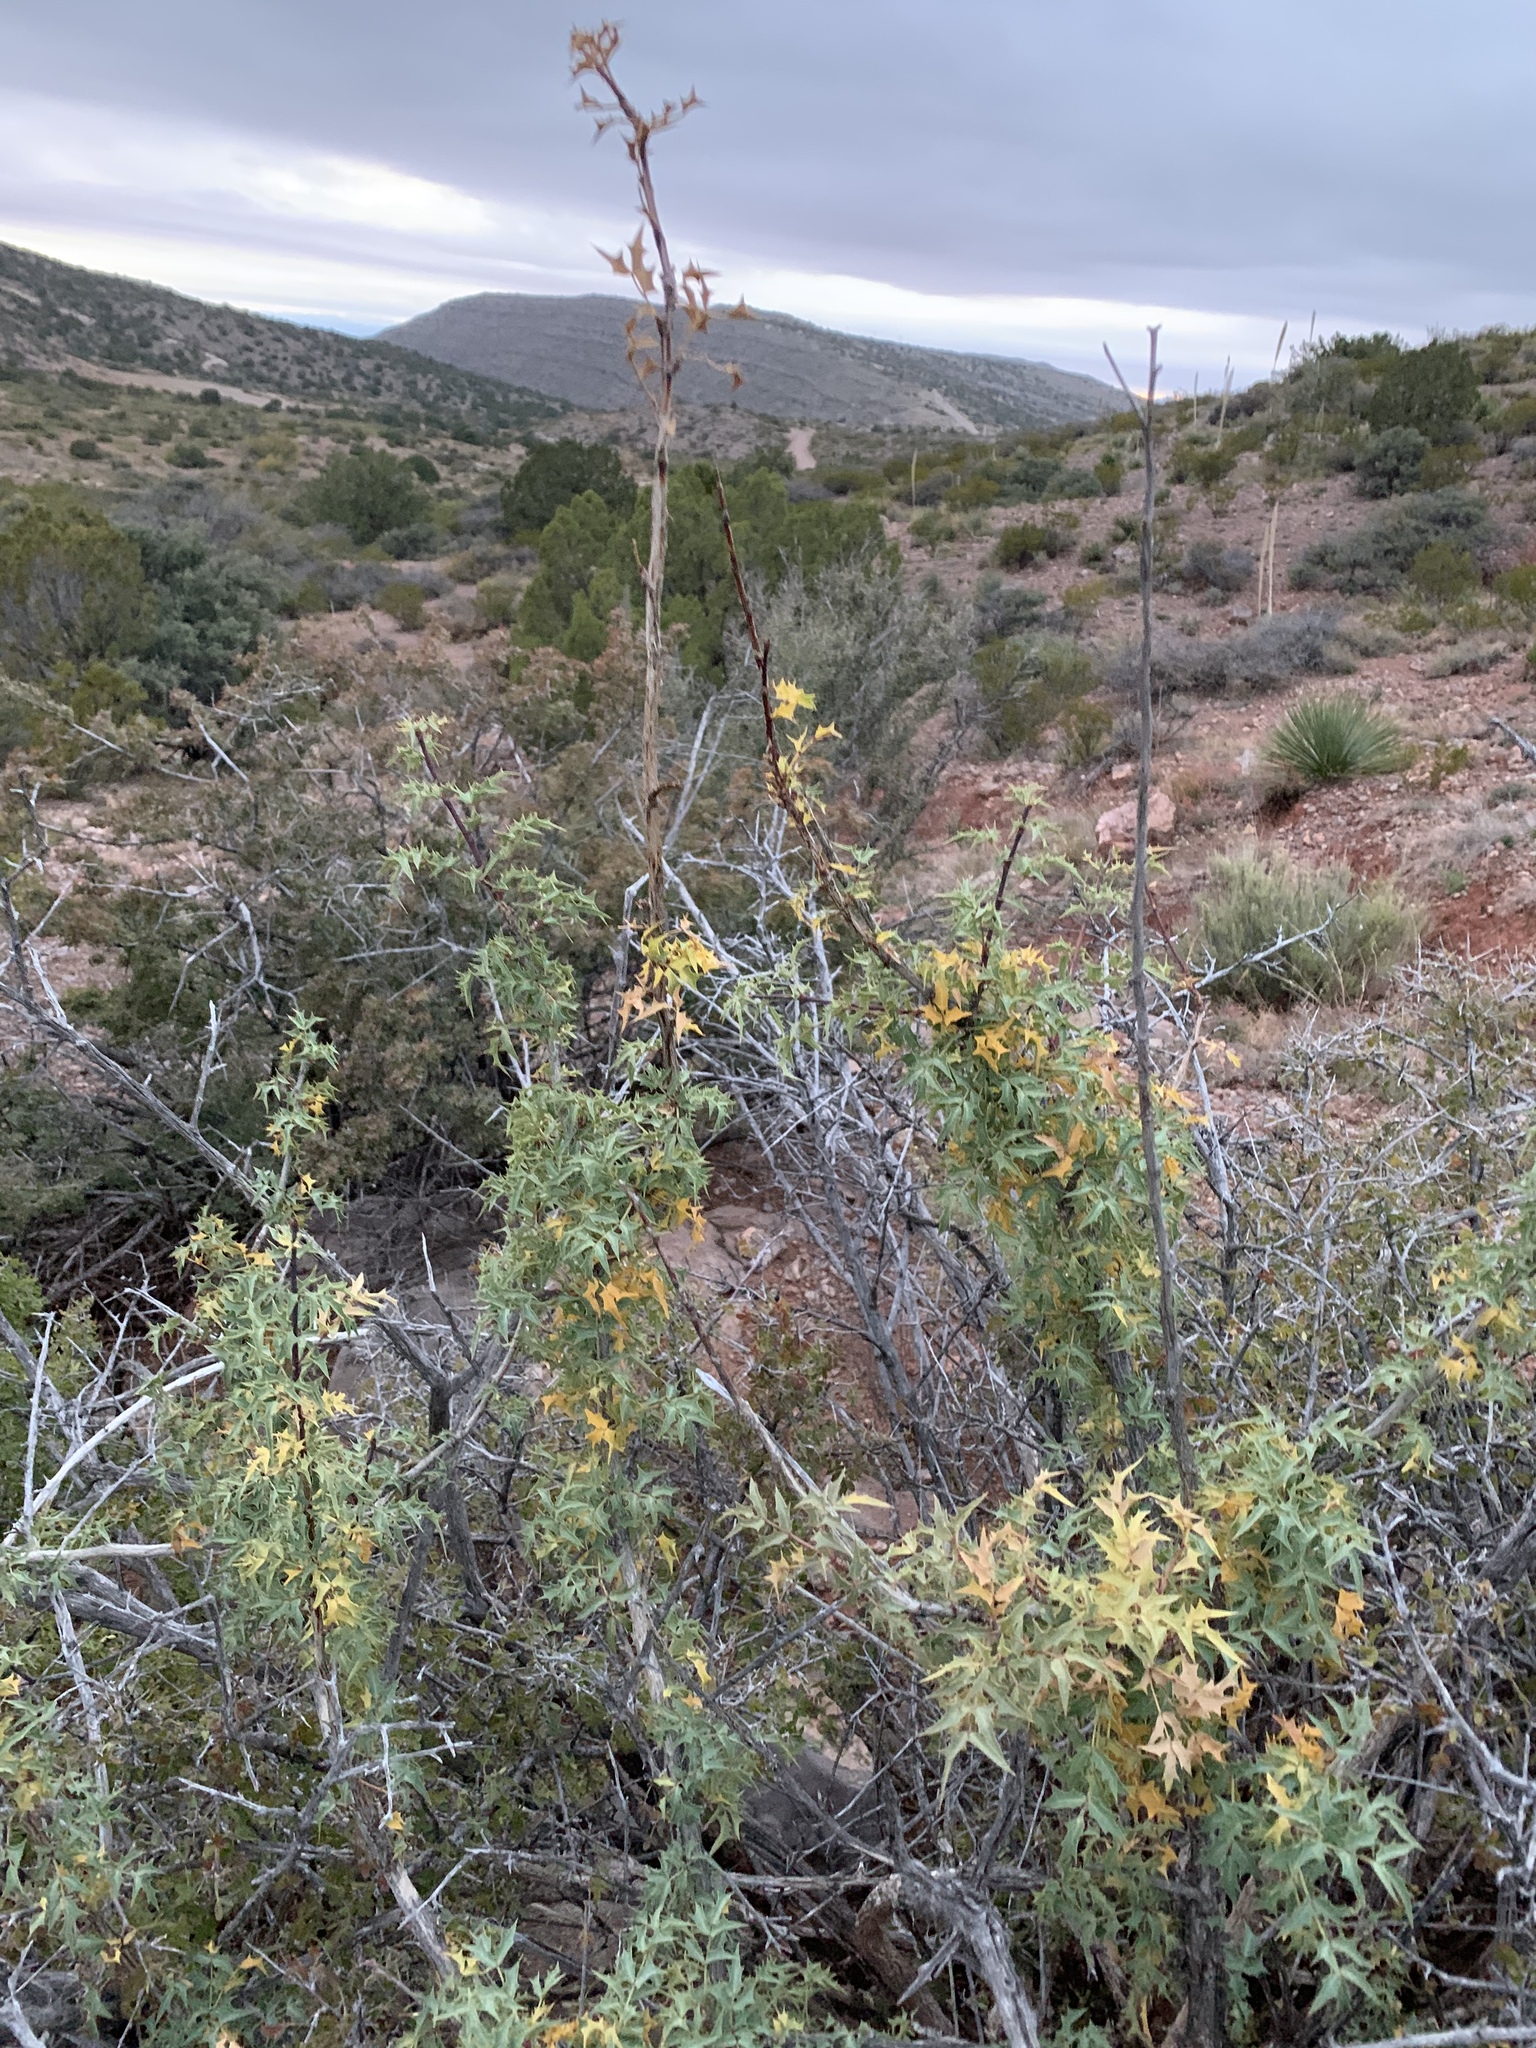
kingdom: Plantae
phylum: Tracheophyta
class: Magnoliopsida
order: Ranunculales
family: Berberidaceae
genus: Alloberberis
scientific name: Alloberberis haematocarpa
